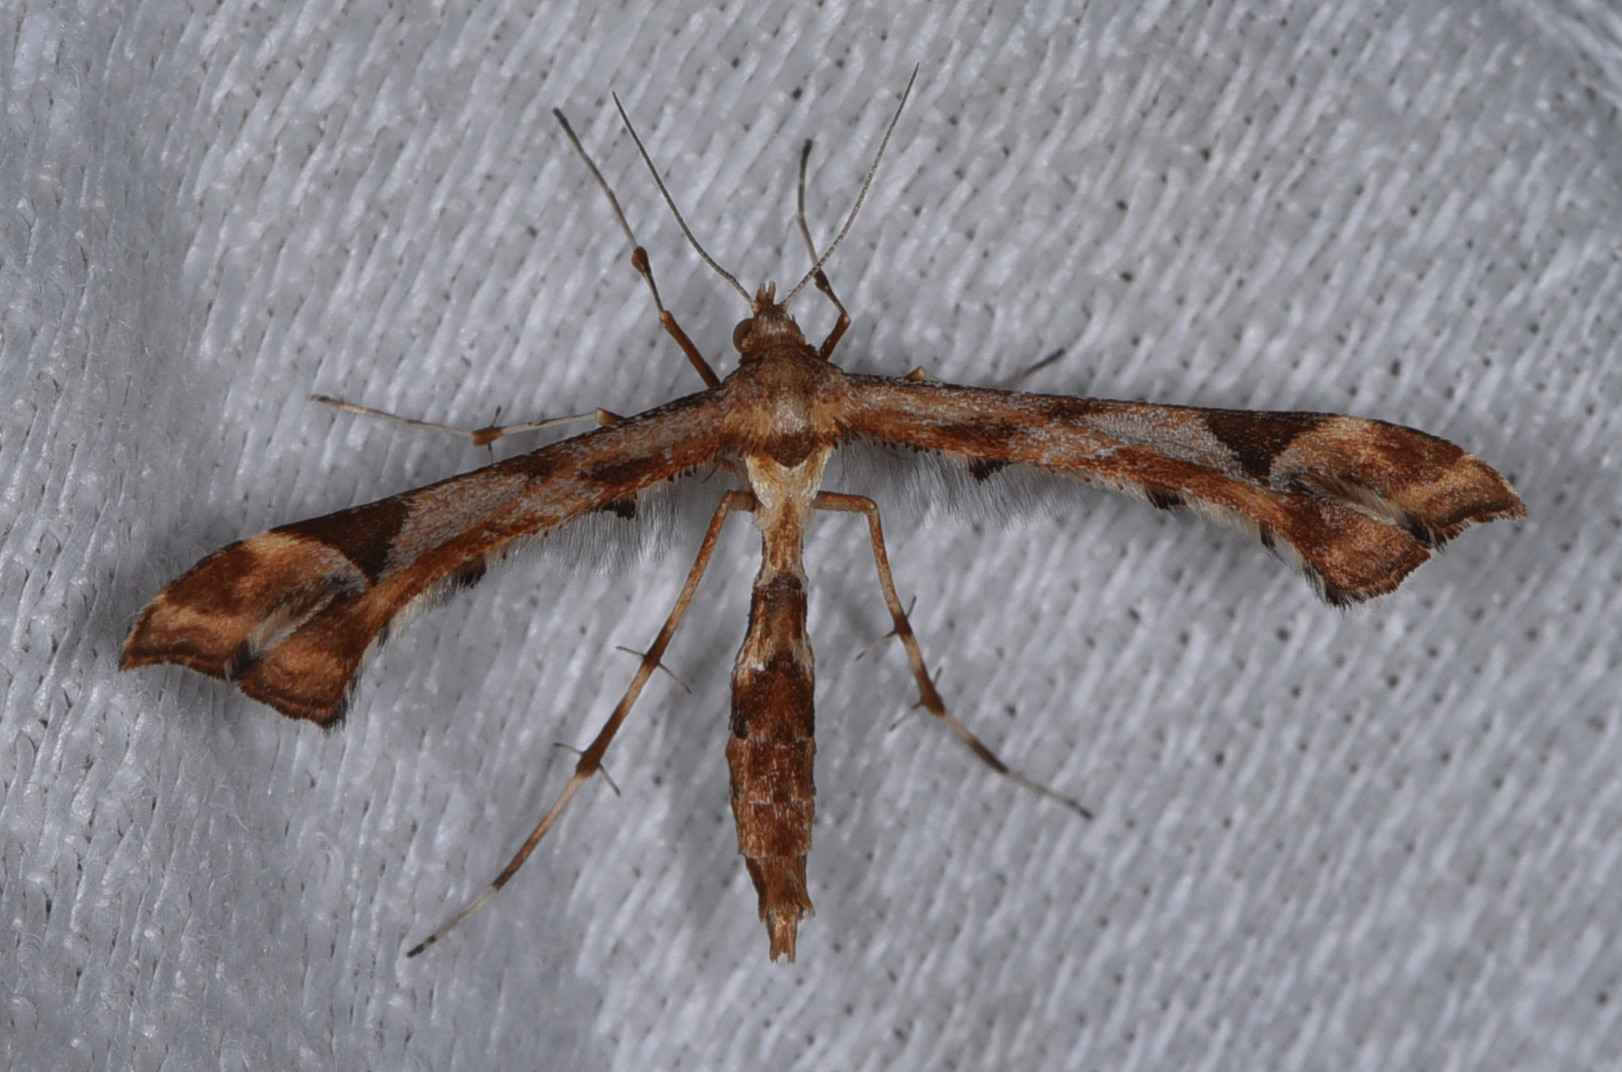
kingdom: Animalia
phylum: Arthropoda
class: Insecta
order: Lepidoptera
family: Pterophoridae
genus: Platyptilia
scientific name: Platyptilia carduidactylus
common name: Artichoke plume moth
